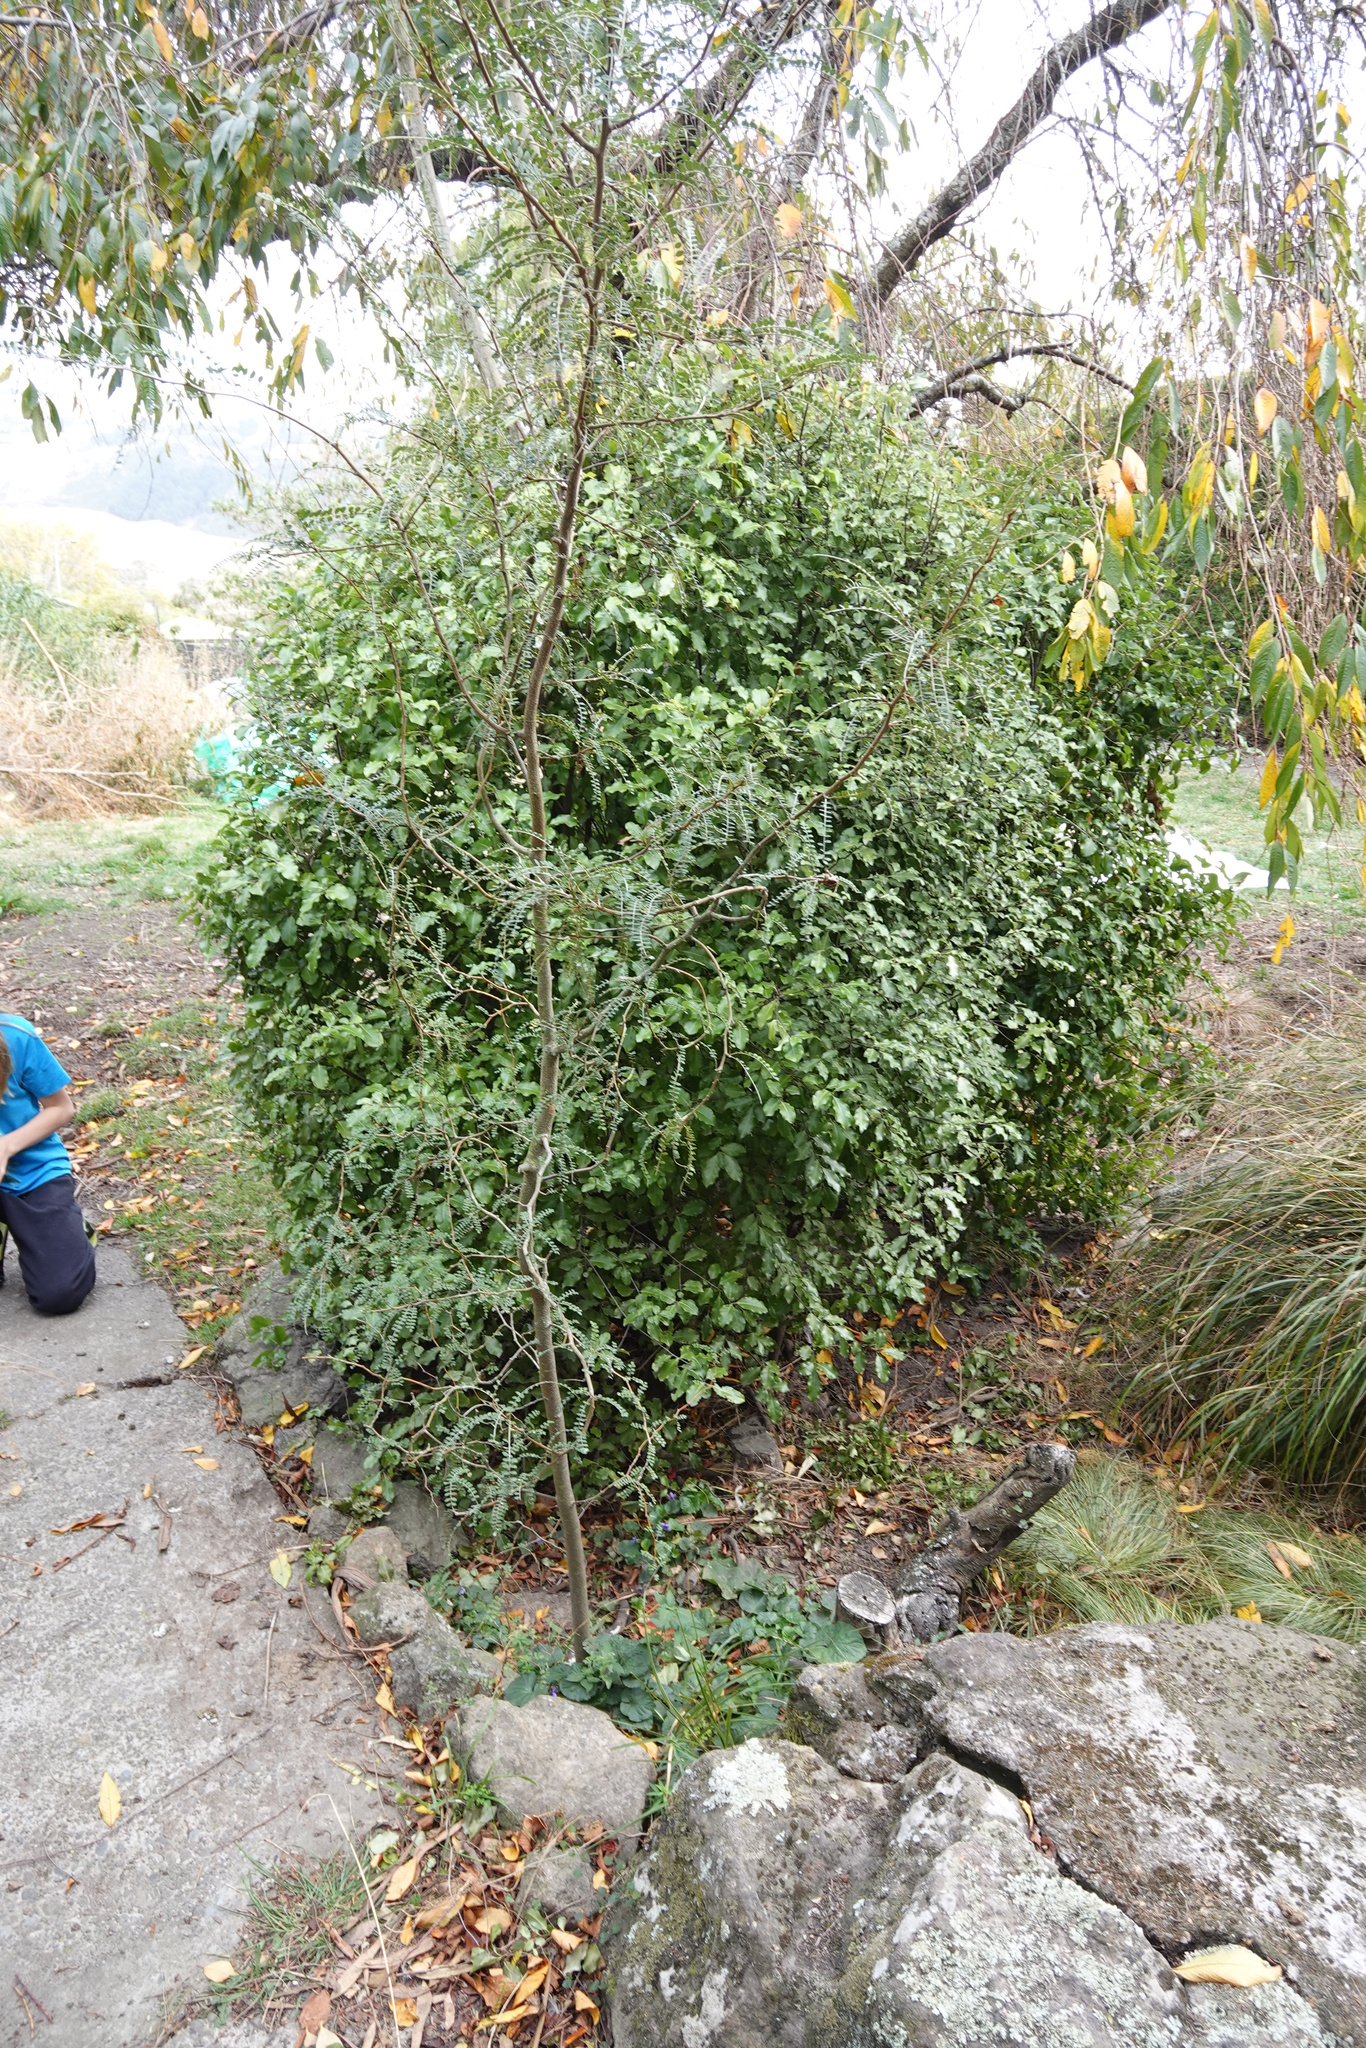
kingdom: Plantae
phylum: Tracheophyta
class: Magnoliopsida
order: Fabales
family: Fabaceae
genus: Sophora
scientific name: Sophora microphylla
